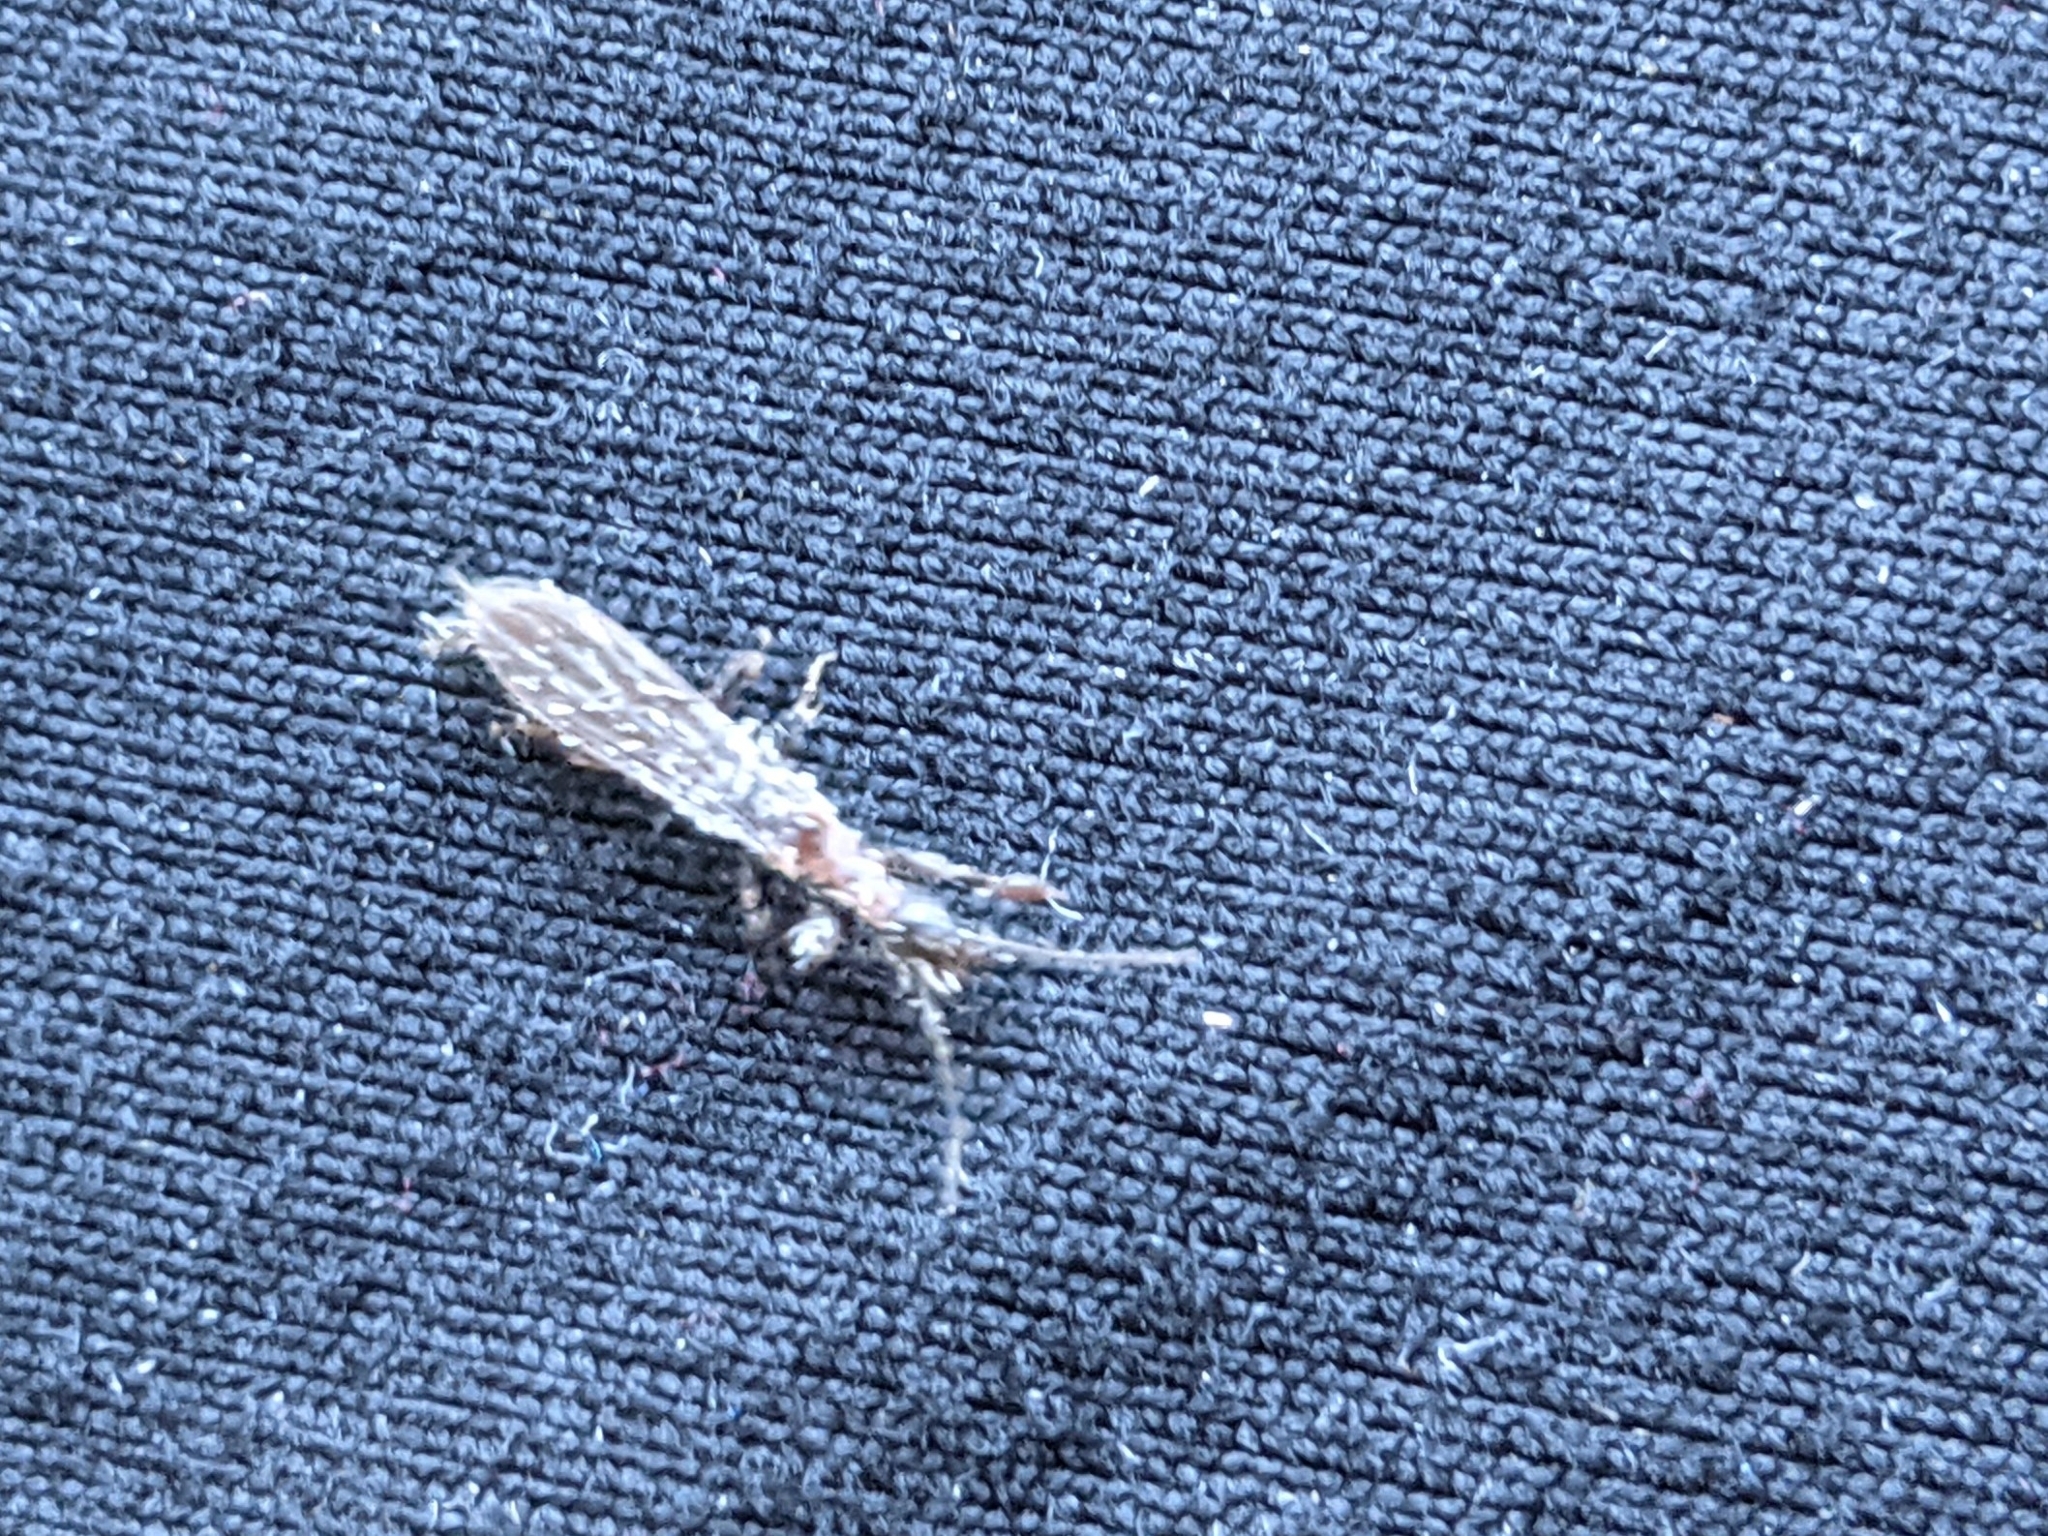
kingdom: Animalia
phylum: Arthropoda
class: Insecta
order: Embioptera
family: Oligotomidae
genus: Oligotoma
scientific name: Oligotoma nigra
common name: Black webspinner
